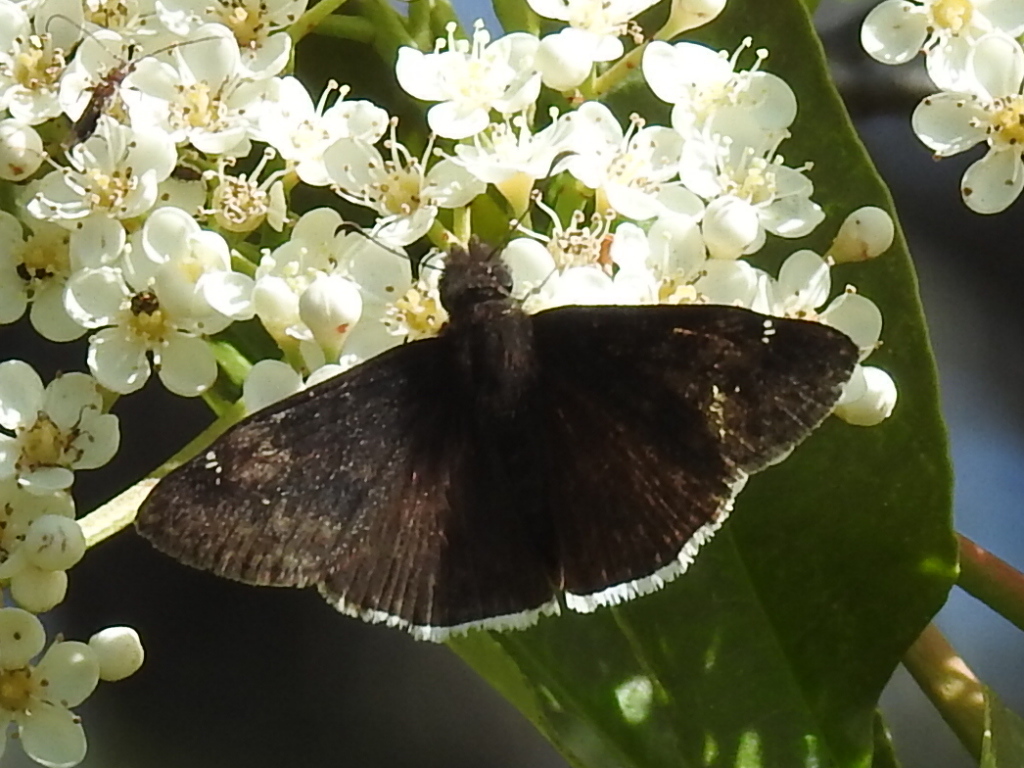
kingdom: Animalia
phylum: Arthropoda
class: Insecta
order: Lepidoptera
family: Hesperiidae
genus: Erynnis
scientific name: Erynnis funeralis
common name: Funereal duskywing
